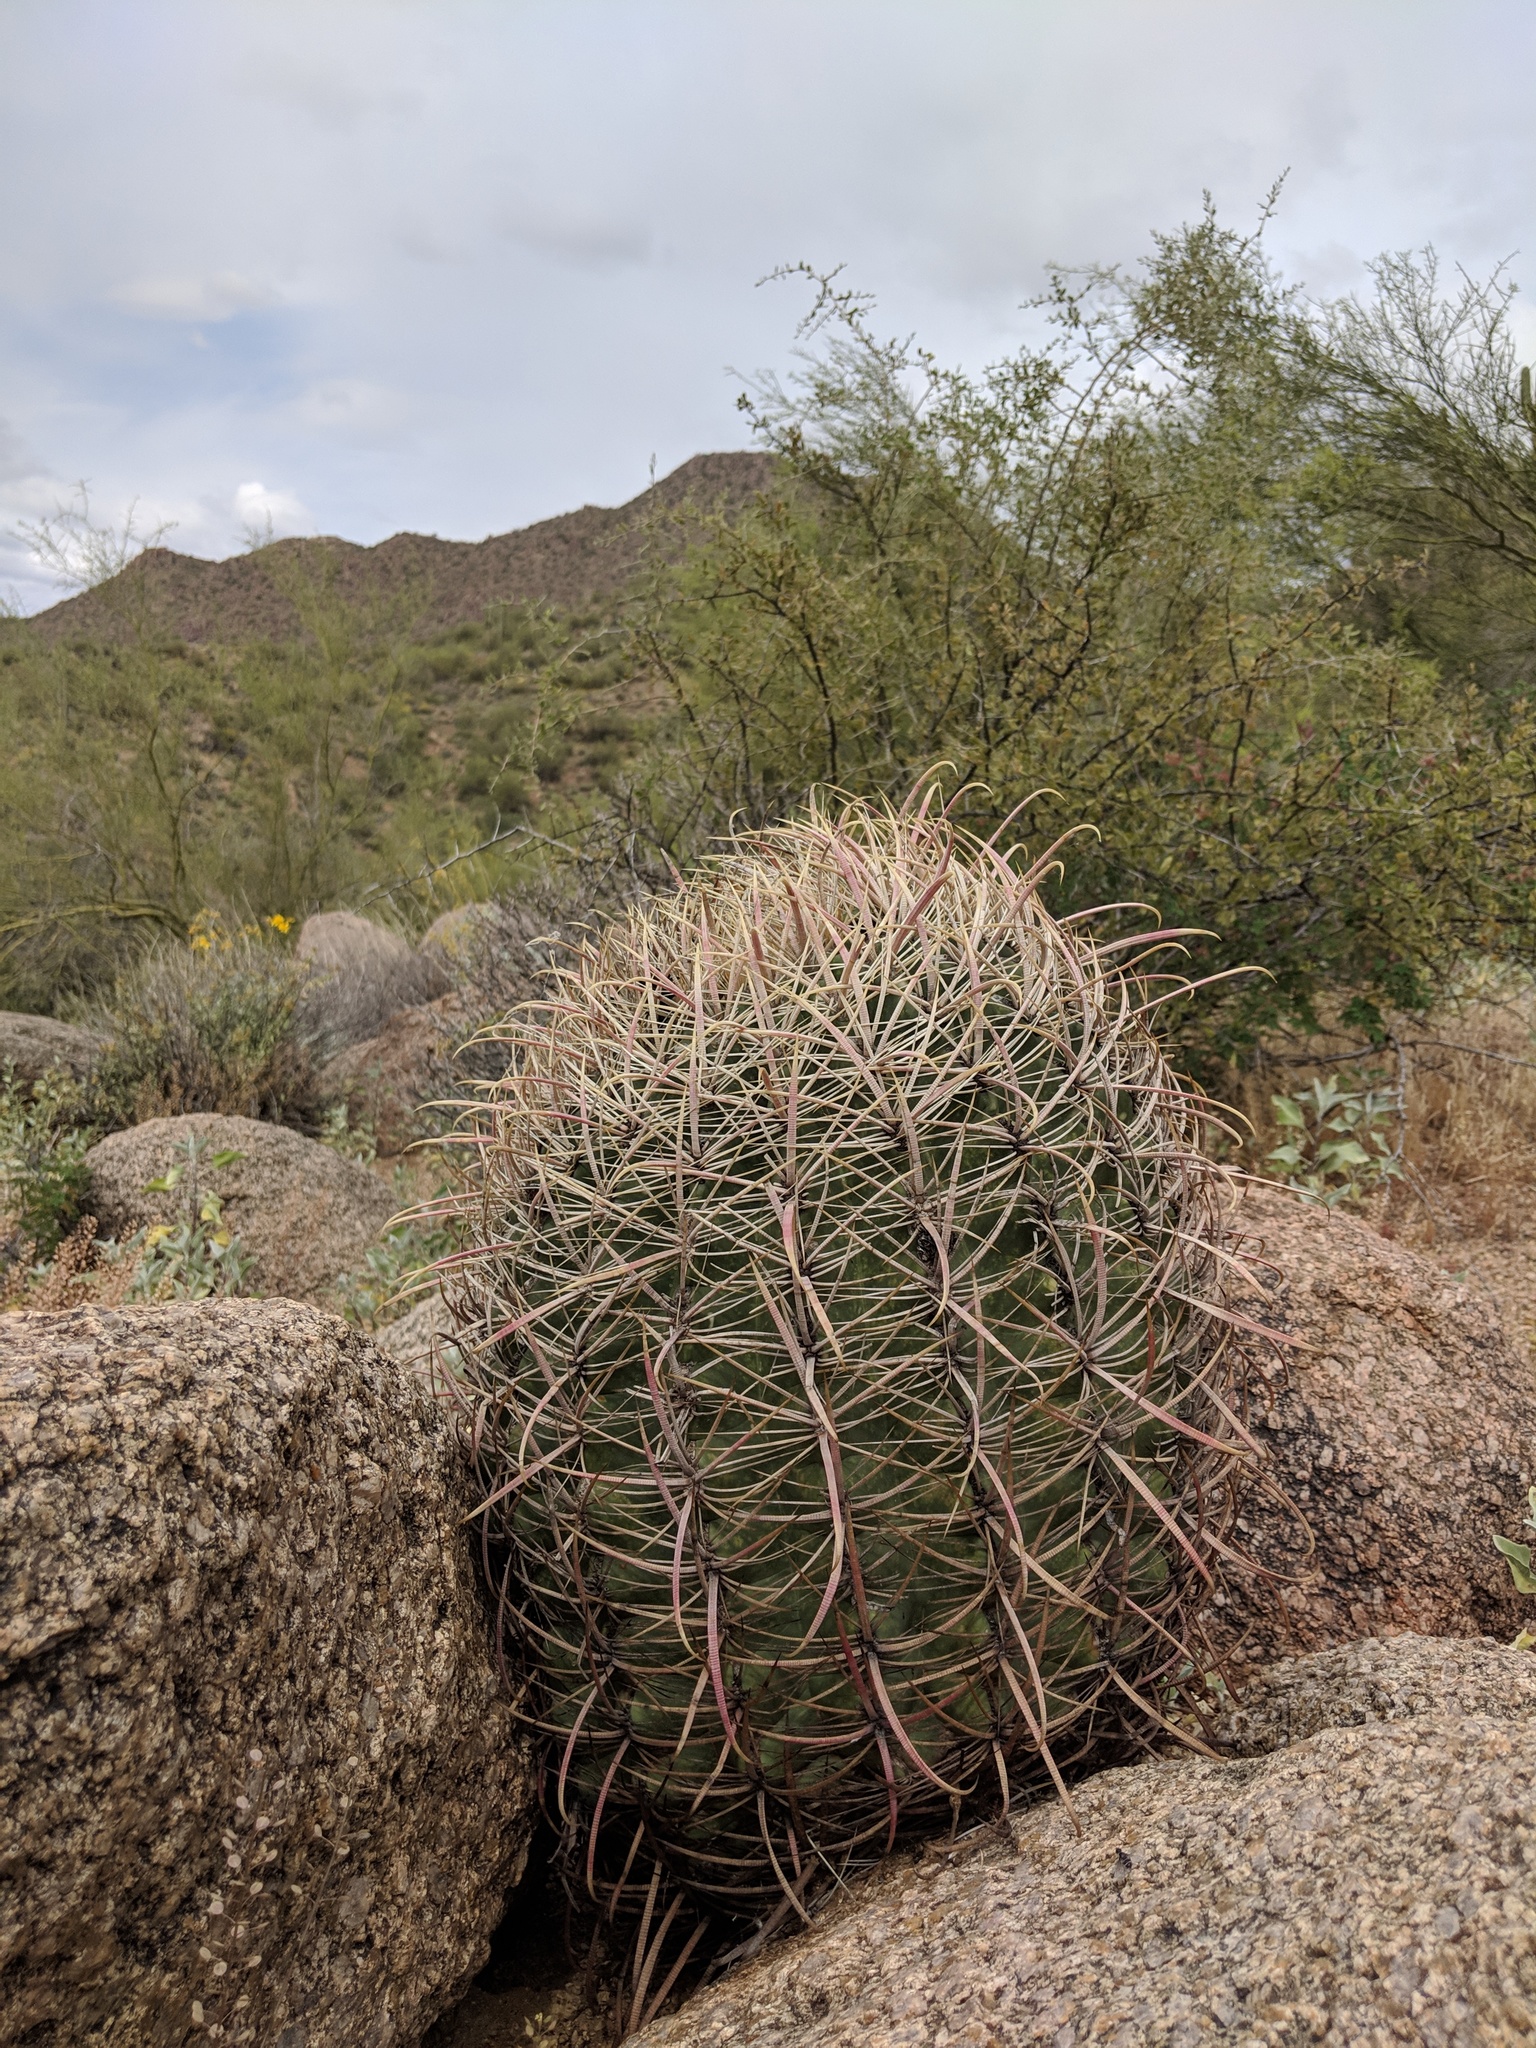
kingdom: Plantae
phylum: Tracheophyta
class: Magnoliopsida
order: Caryophyllales
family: Cactaceae
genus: Ferocactus
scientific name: Ferocactus cylindraceus
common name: California barrel cactus
